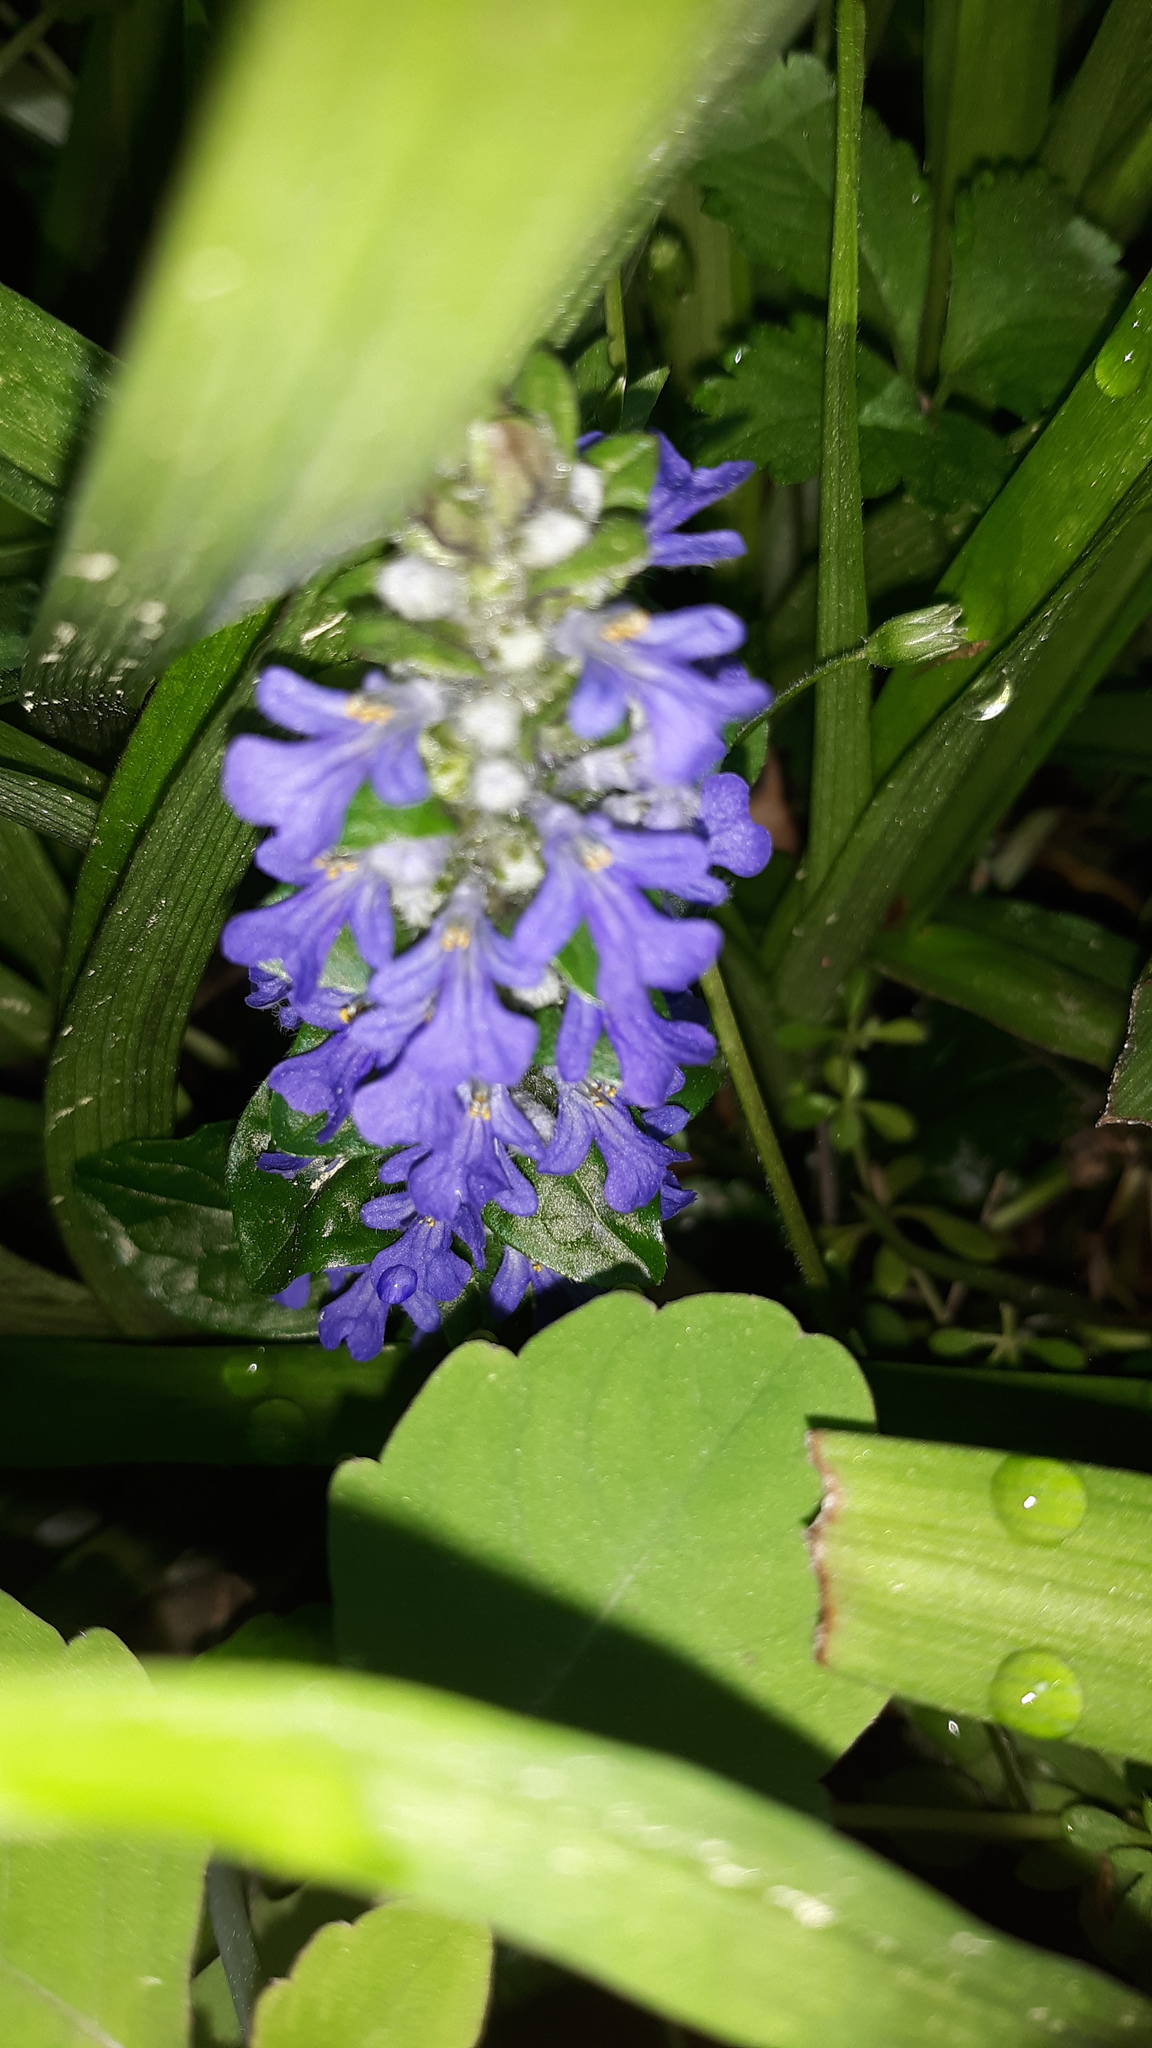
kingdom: Plantae
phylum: Tracheophyta
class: Magnoliopsida
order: Lamiales
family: Lamiaceae
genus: Ajuga
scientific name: Ajuga reptans
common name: Bugle
